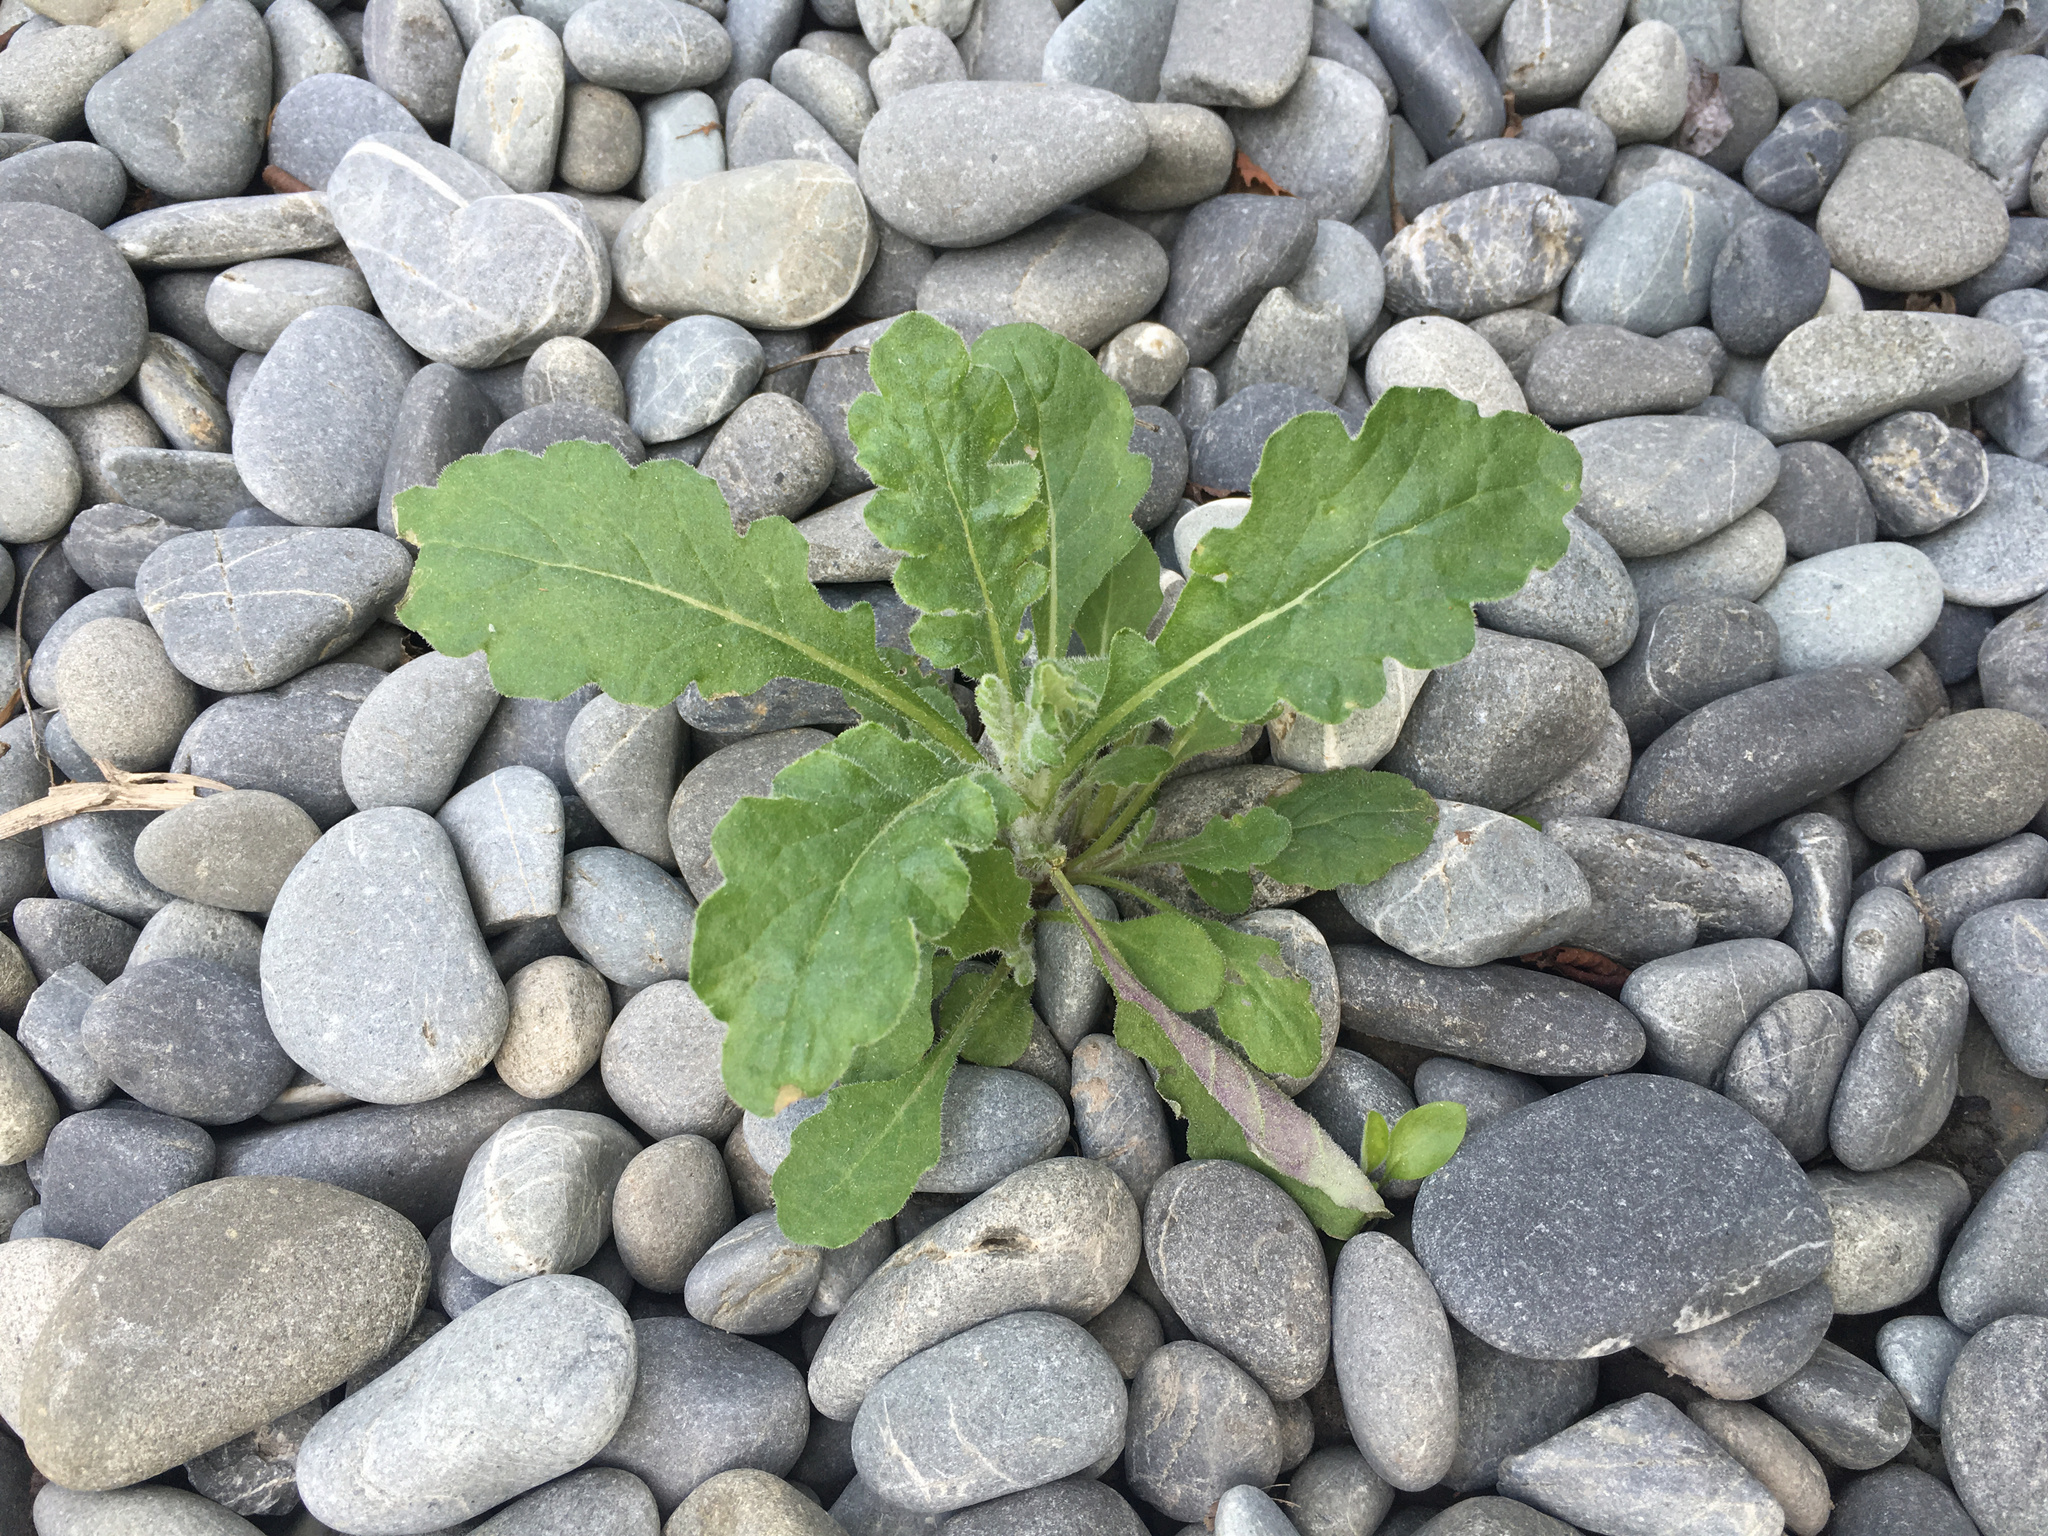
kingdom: Plantae
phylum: Tracheophyta
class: Magnoliopsida
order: Asterales
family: Asteraceae
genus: Senecio
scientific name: Senecio glomeratus
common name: Cutleaf burnweed
